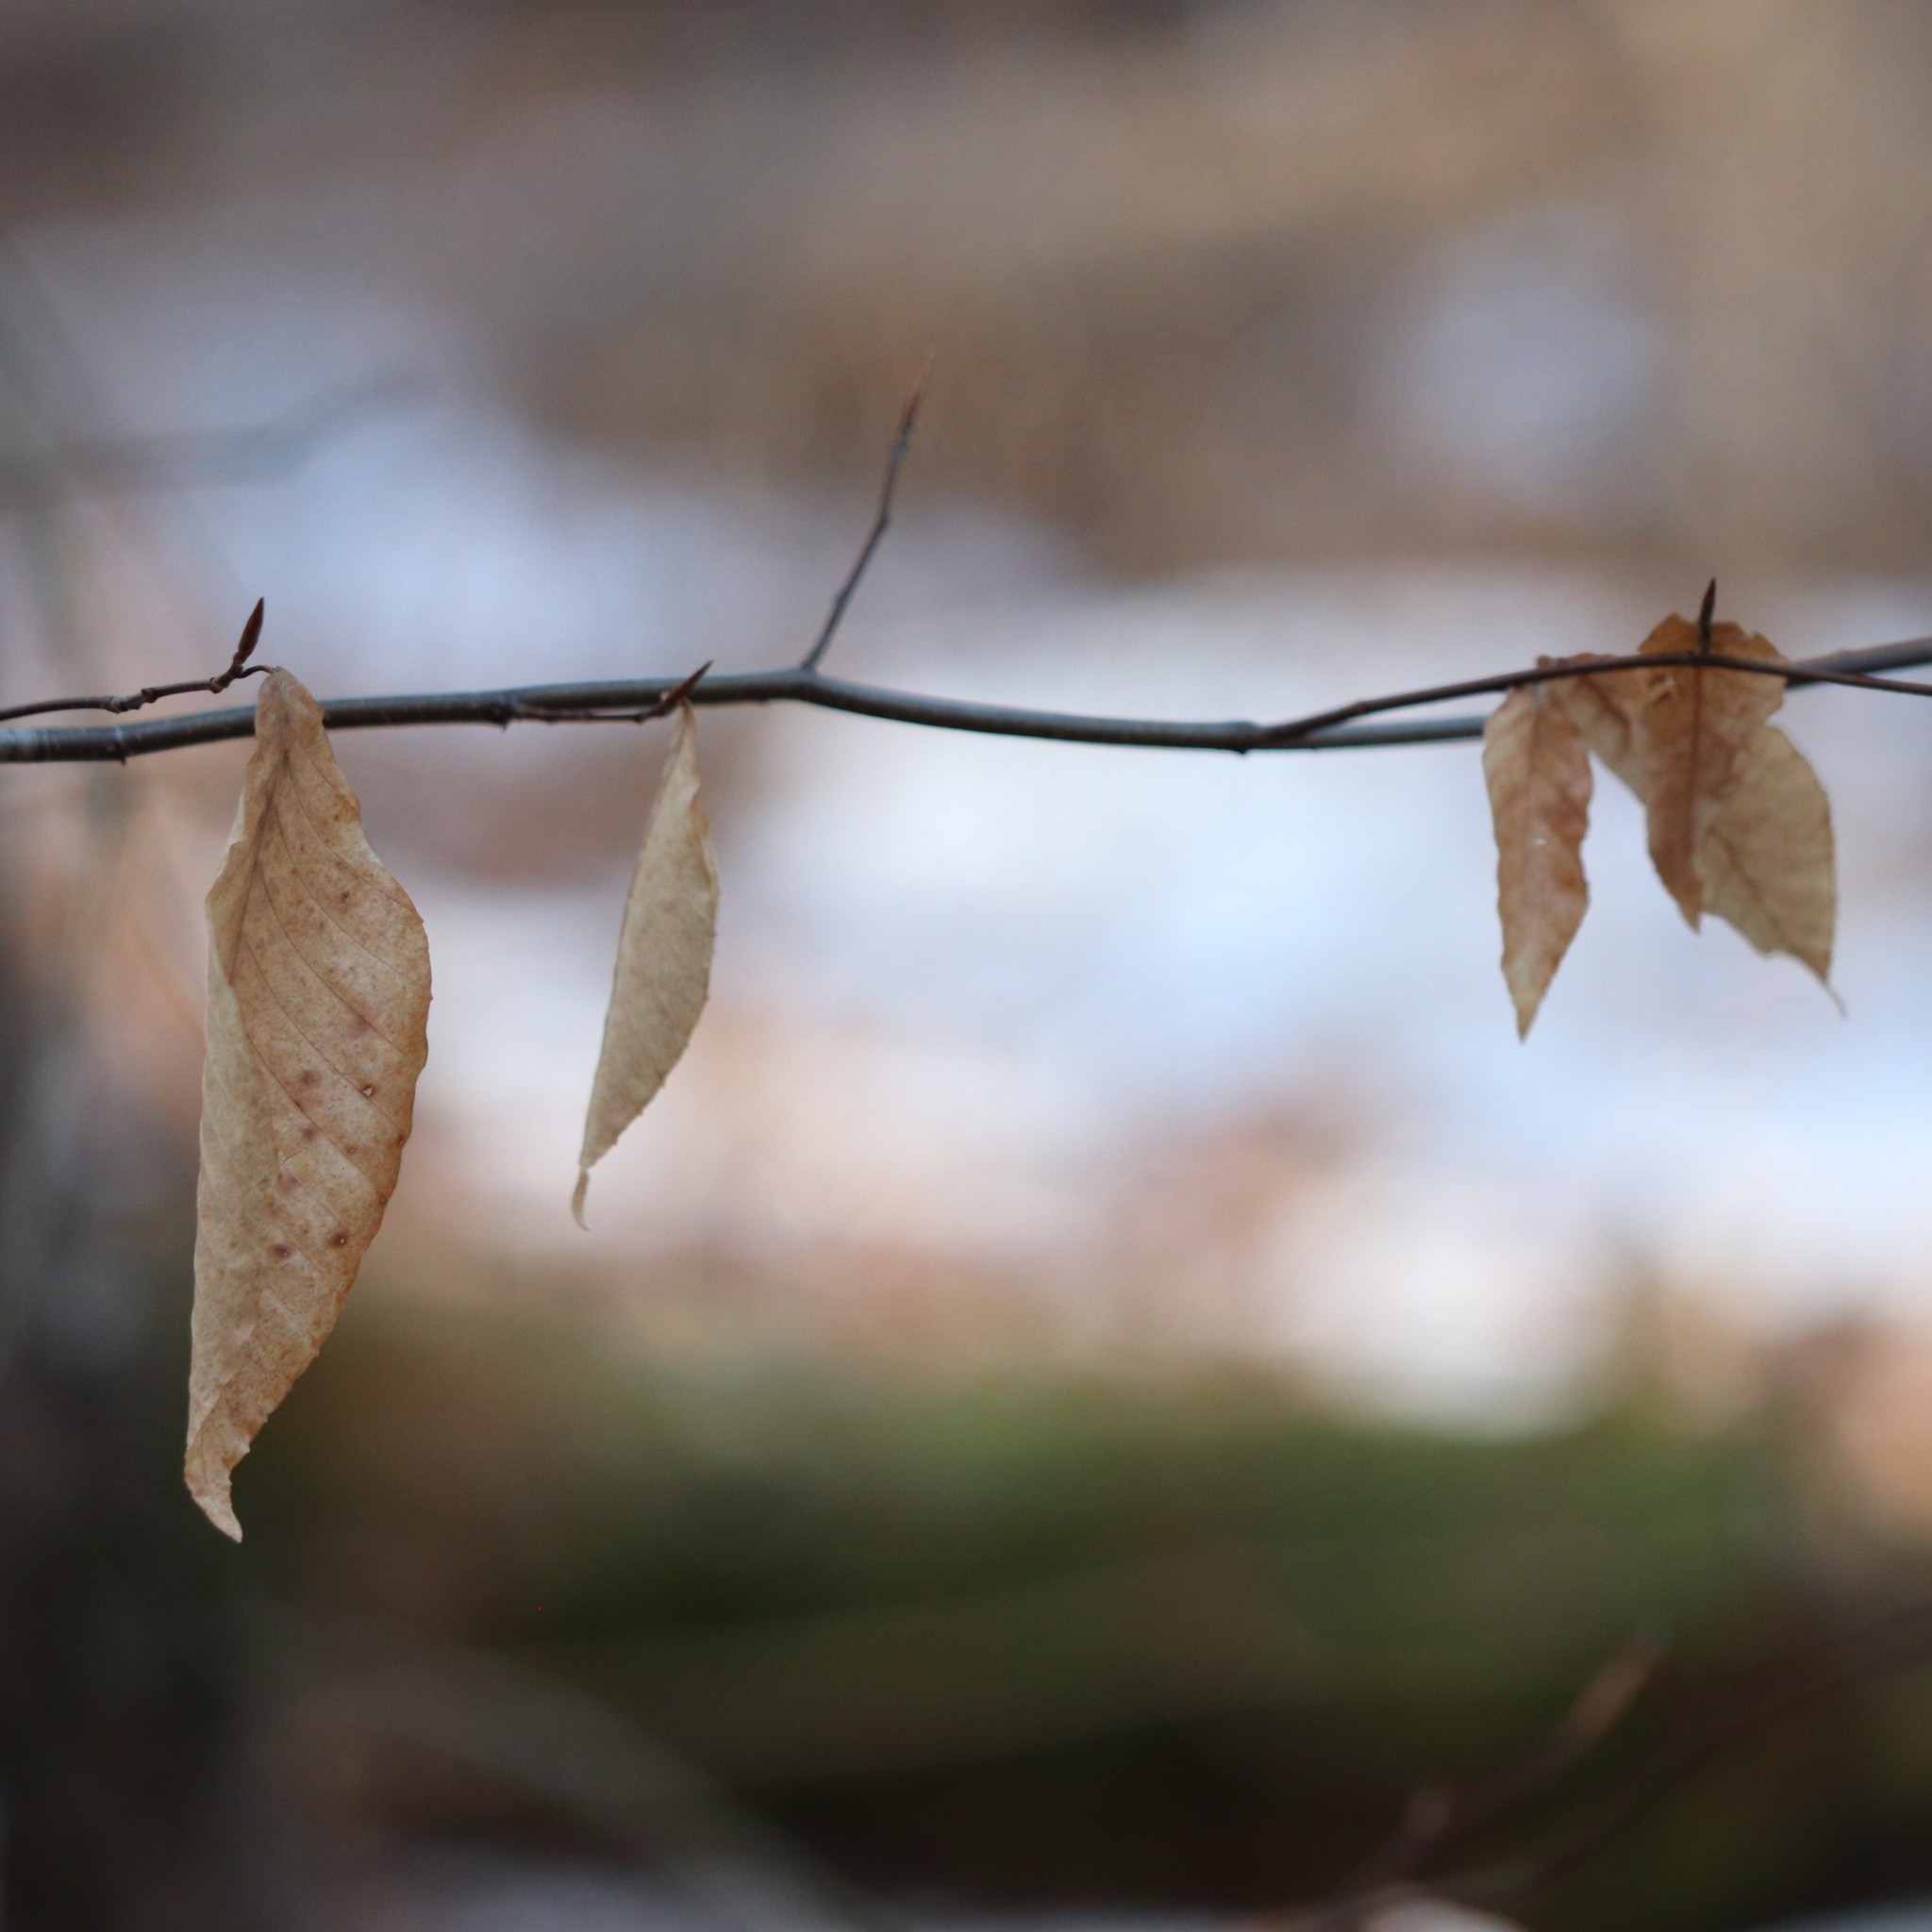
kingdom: Plantae
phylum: Tracheophyta
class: Magnoliopsida
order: Fagales
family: Fagaceae
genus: Fagus
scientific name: Fagus grandifolia
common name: American beech
